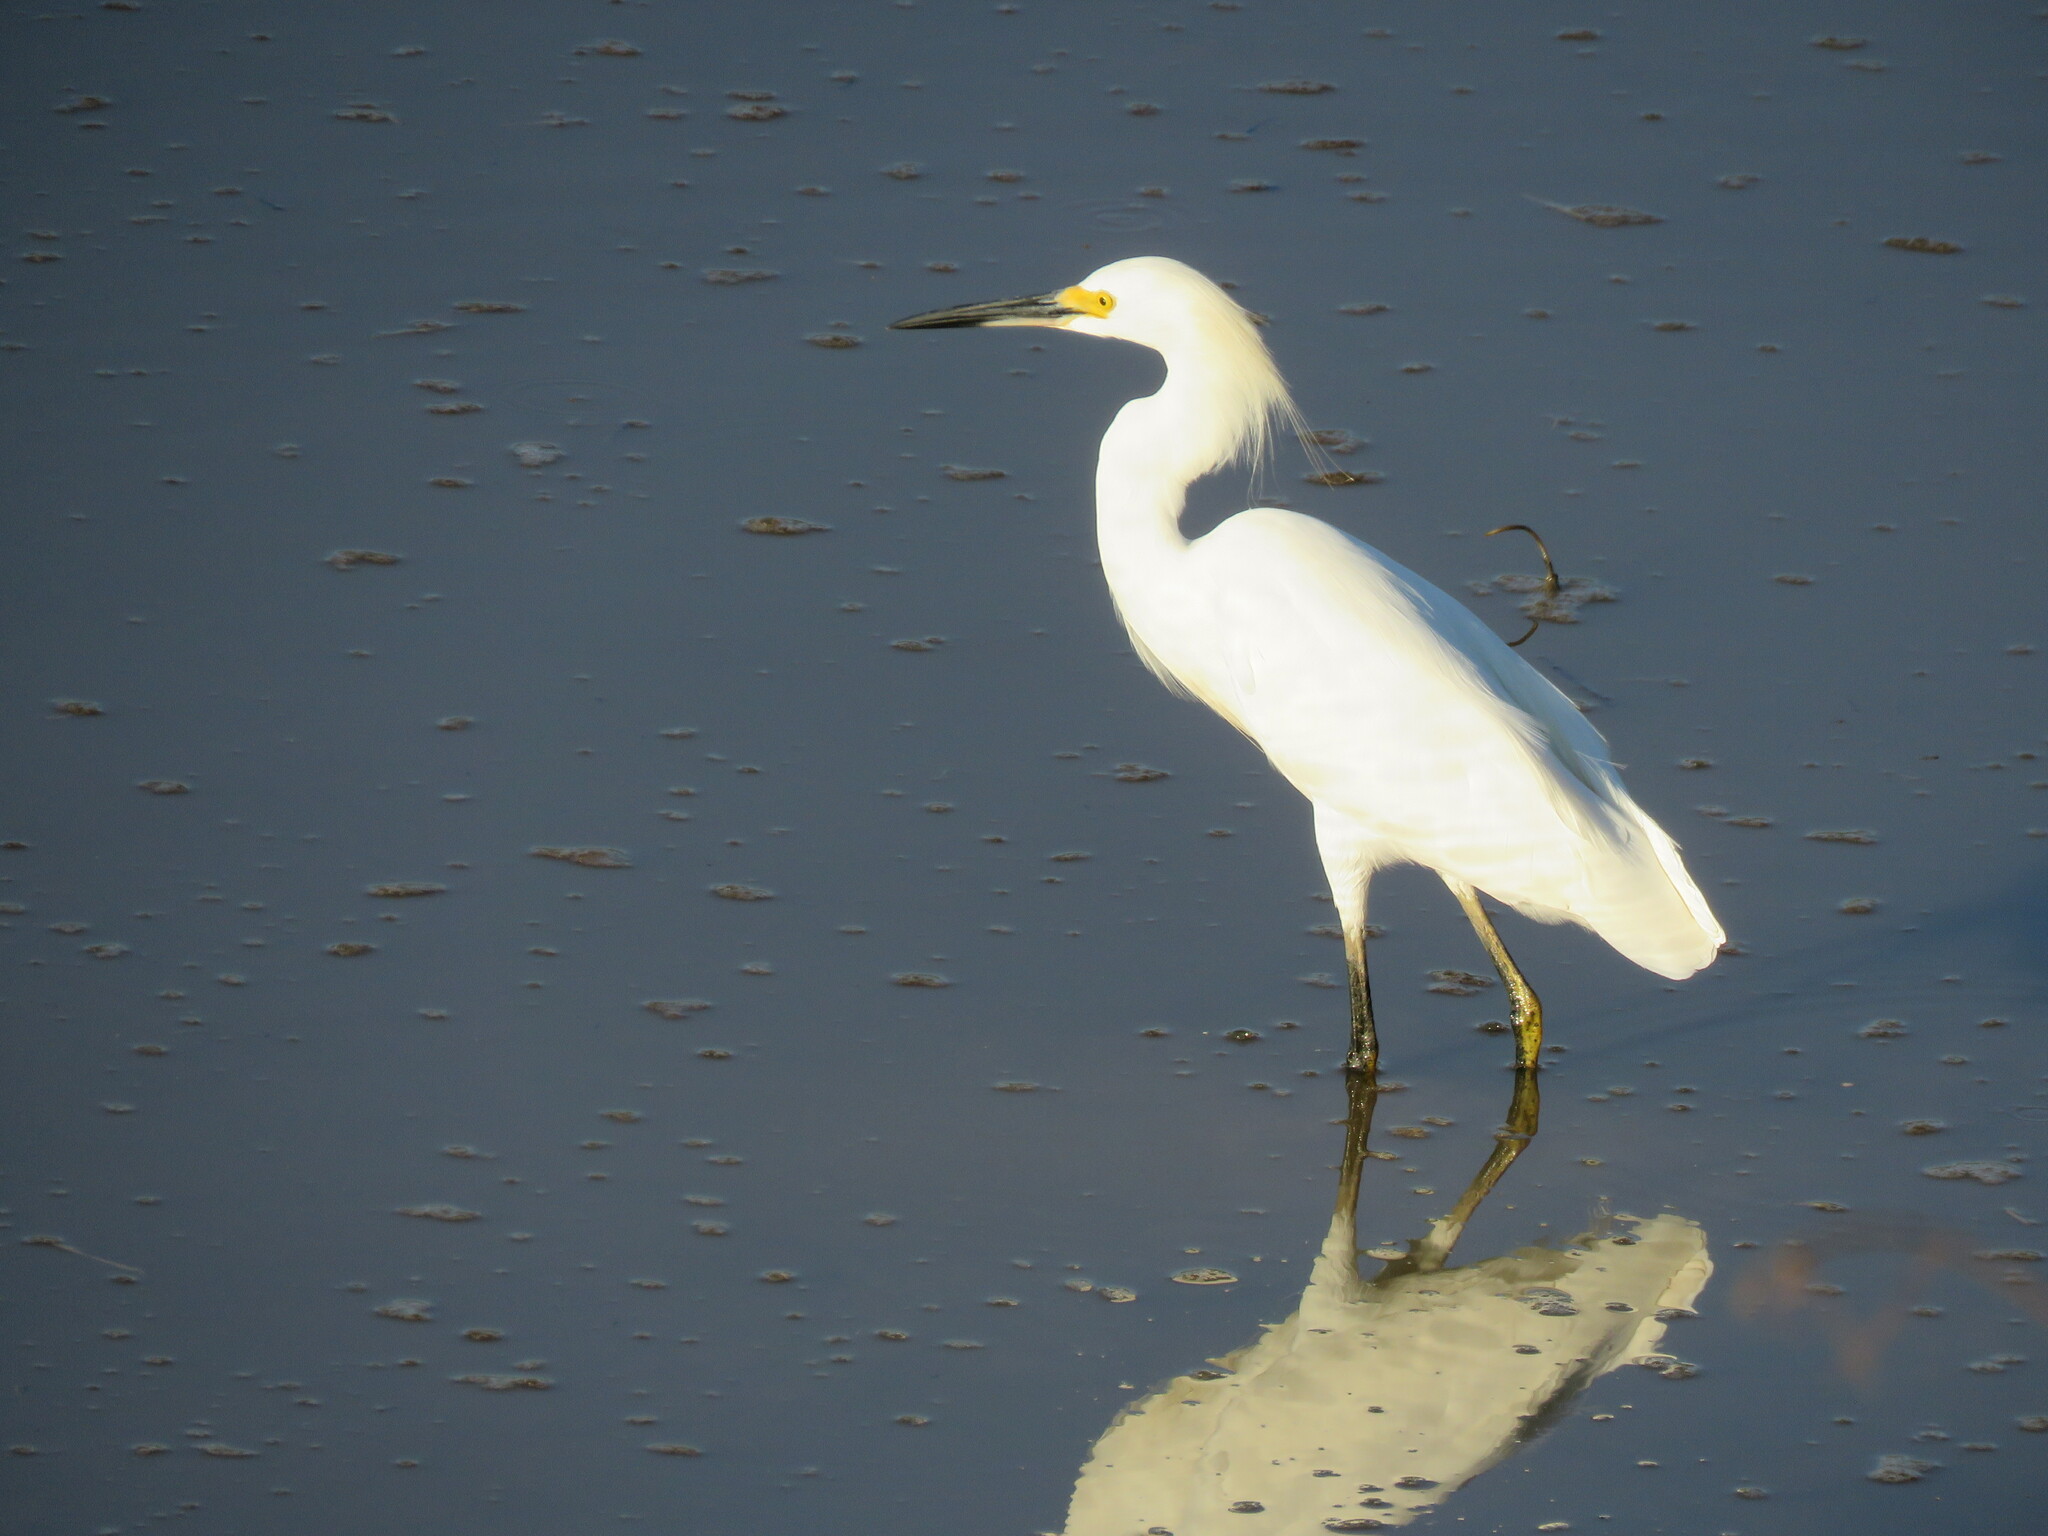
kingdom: Animalia
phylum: Chordata
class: Aves
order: Pelecaniformes
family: Ardeidae
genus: Egretta
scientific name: Egretta thula
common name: Snowy egret
